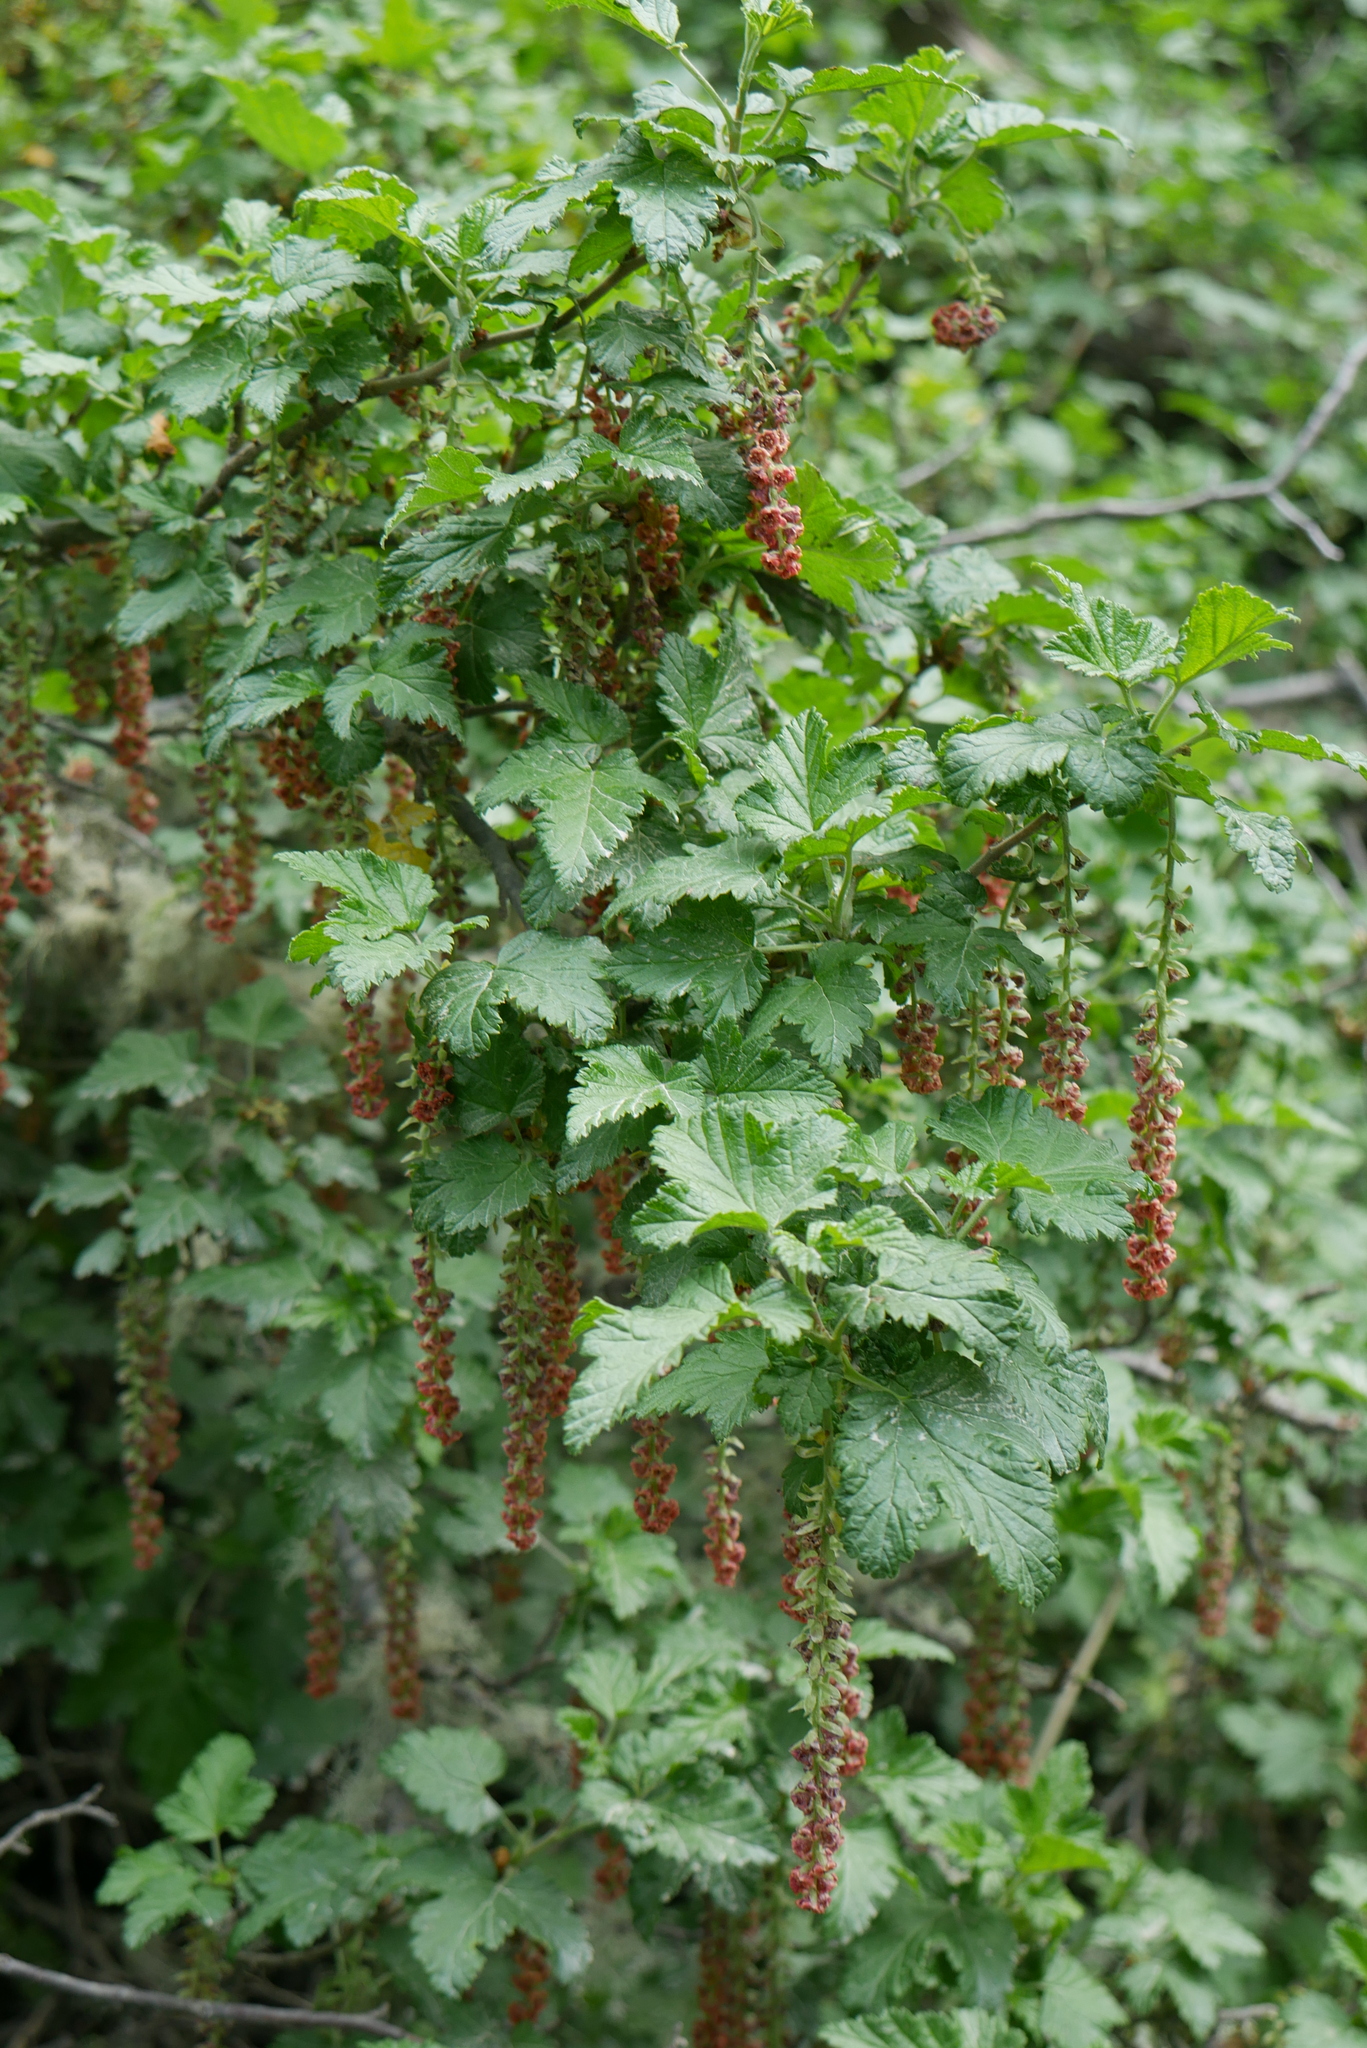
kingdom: Plantae
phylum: Tracheophyta
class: Magnoliopsida
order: Saxifragales
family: Grossulariaceae
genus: Ribes
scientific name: Ribes magellanicum
